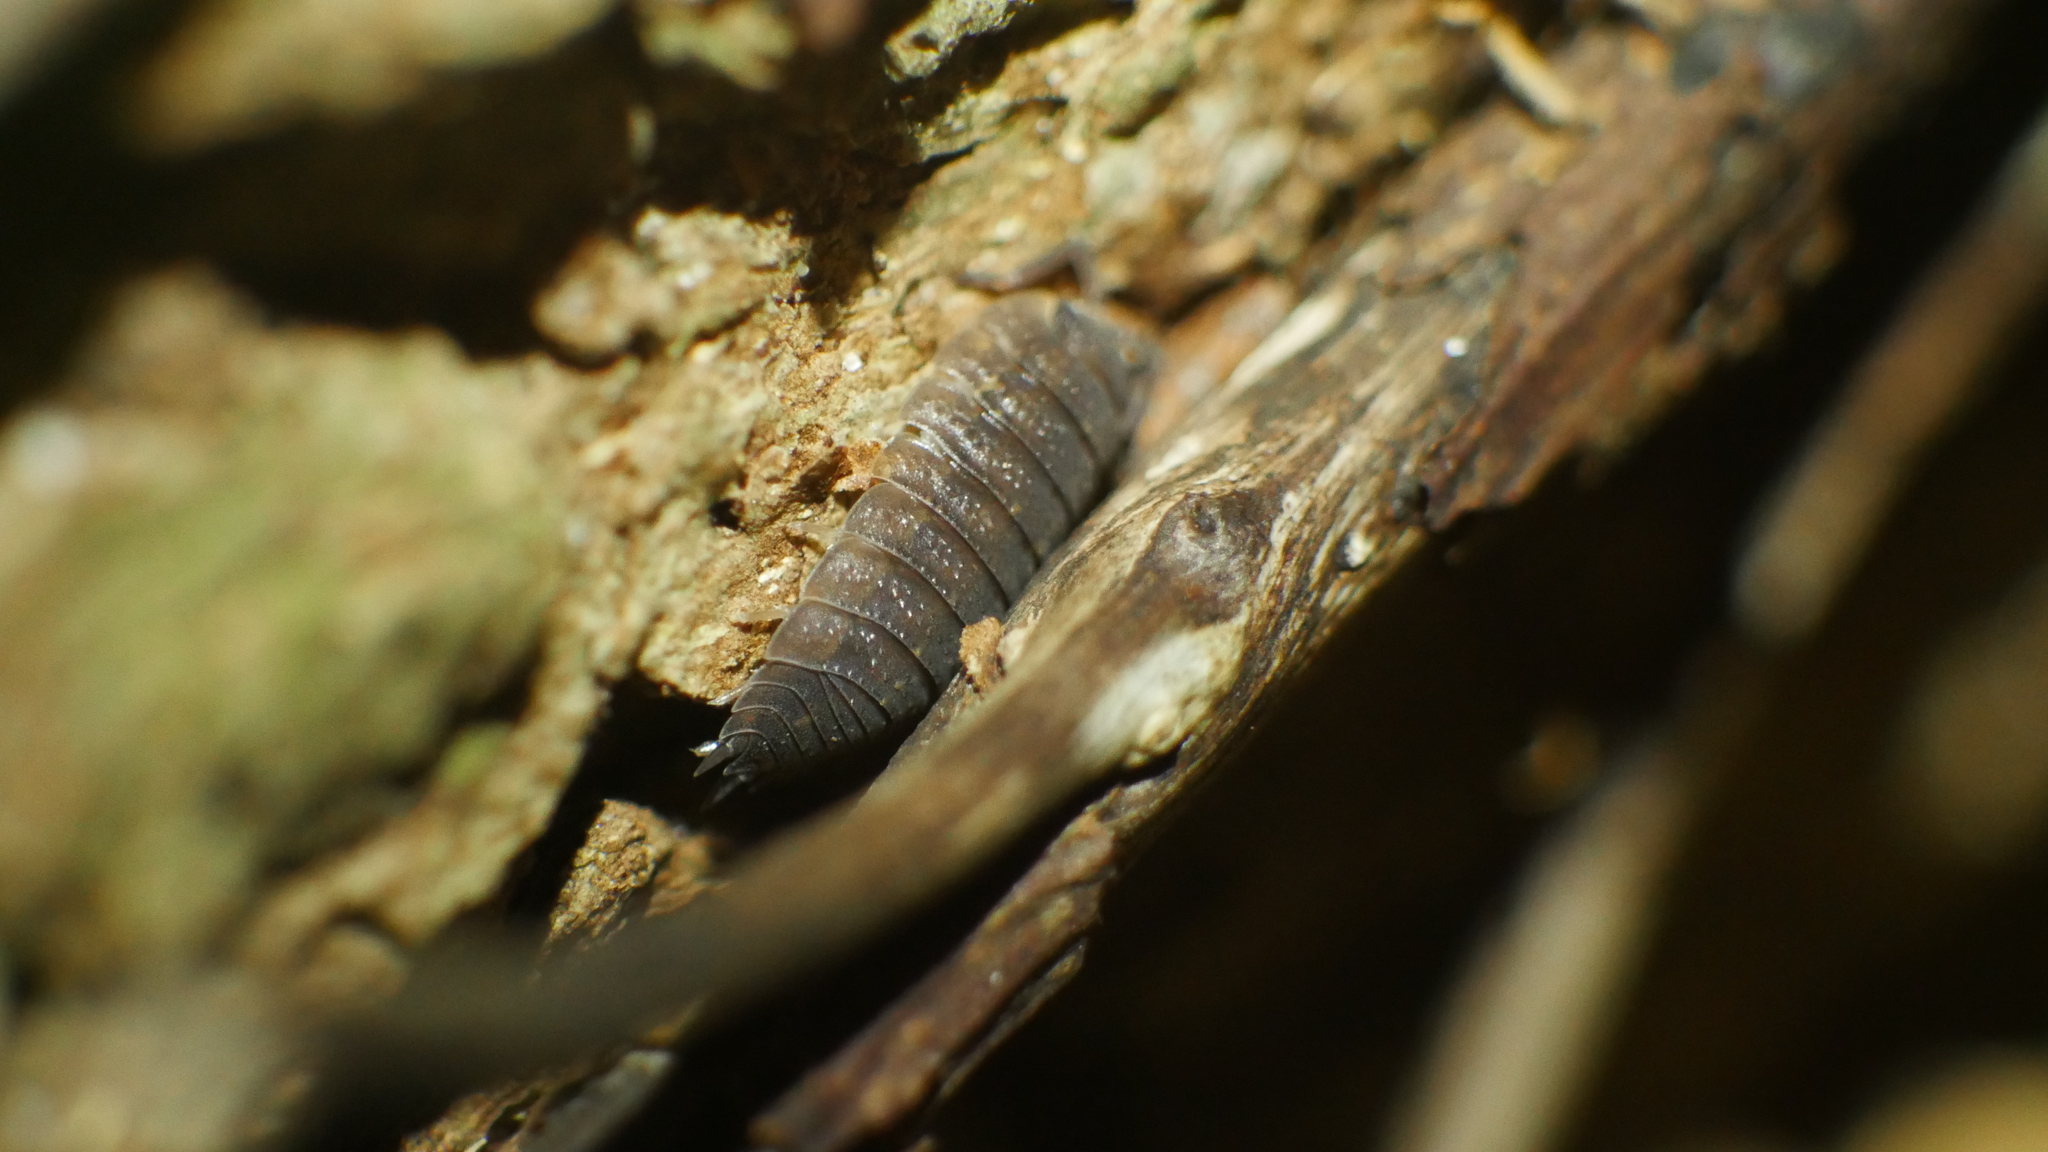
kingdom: Animalia
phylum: Arthropoda
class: Malacostraca
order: Isopoda
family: Porcellionidae
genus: Porcellio
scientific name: Porcellio scaber
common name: Common rough woodlouse
